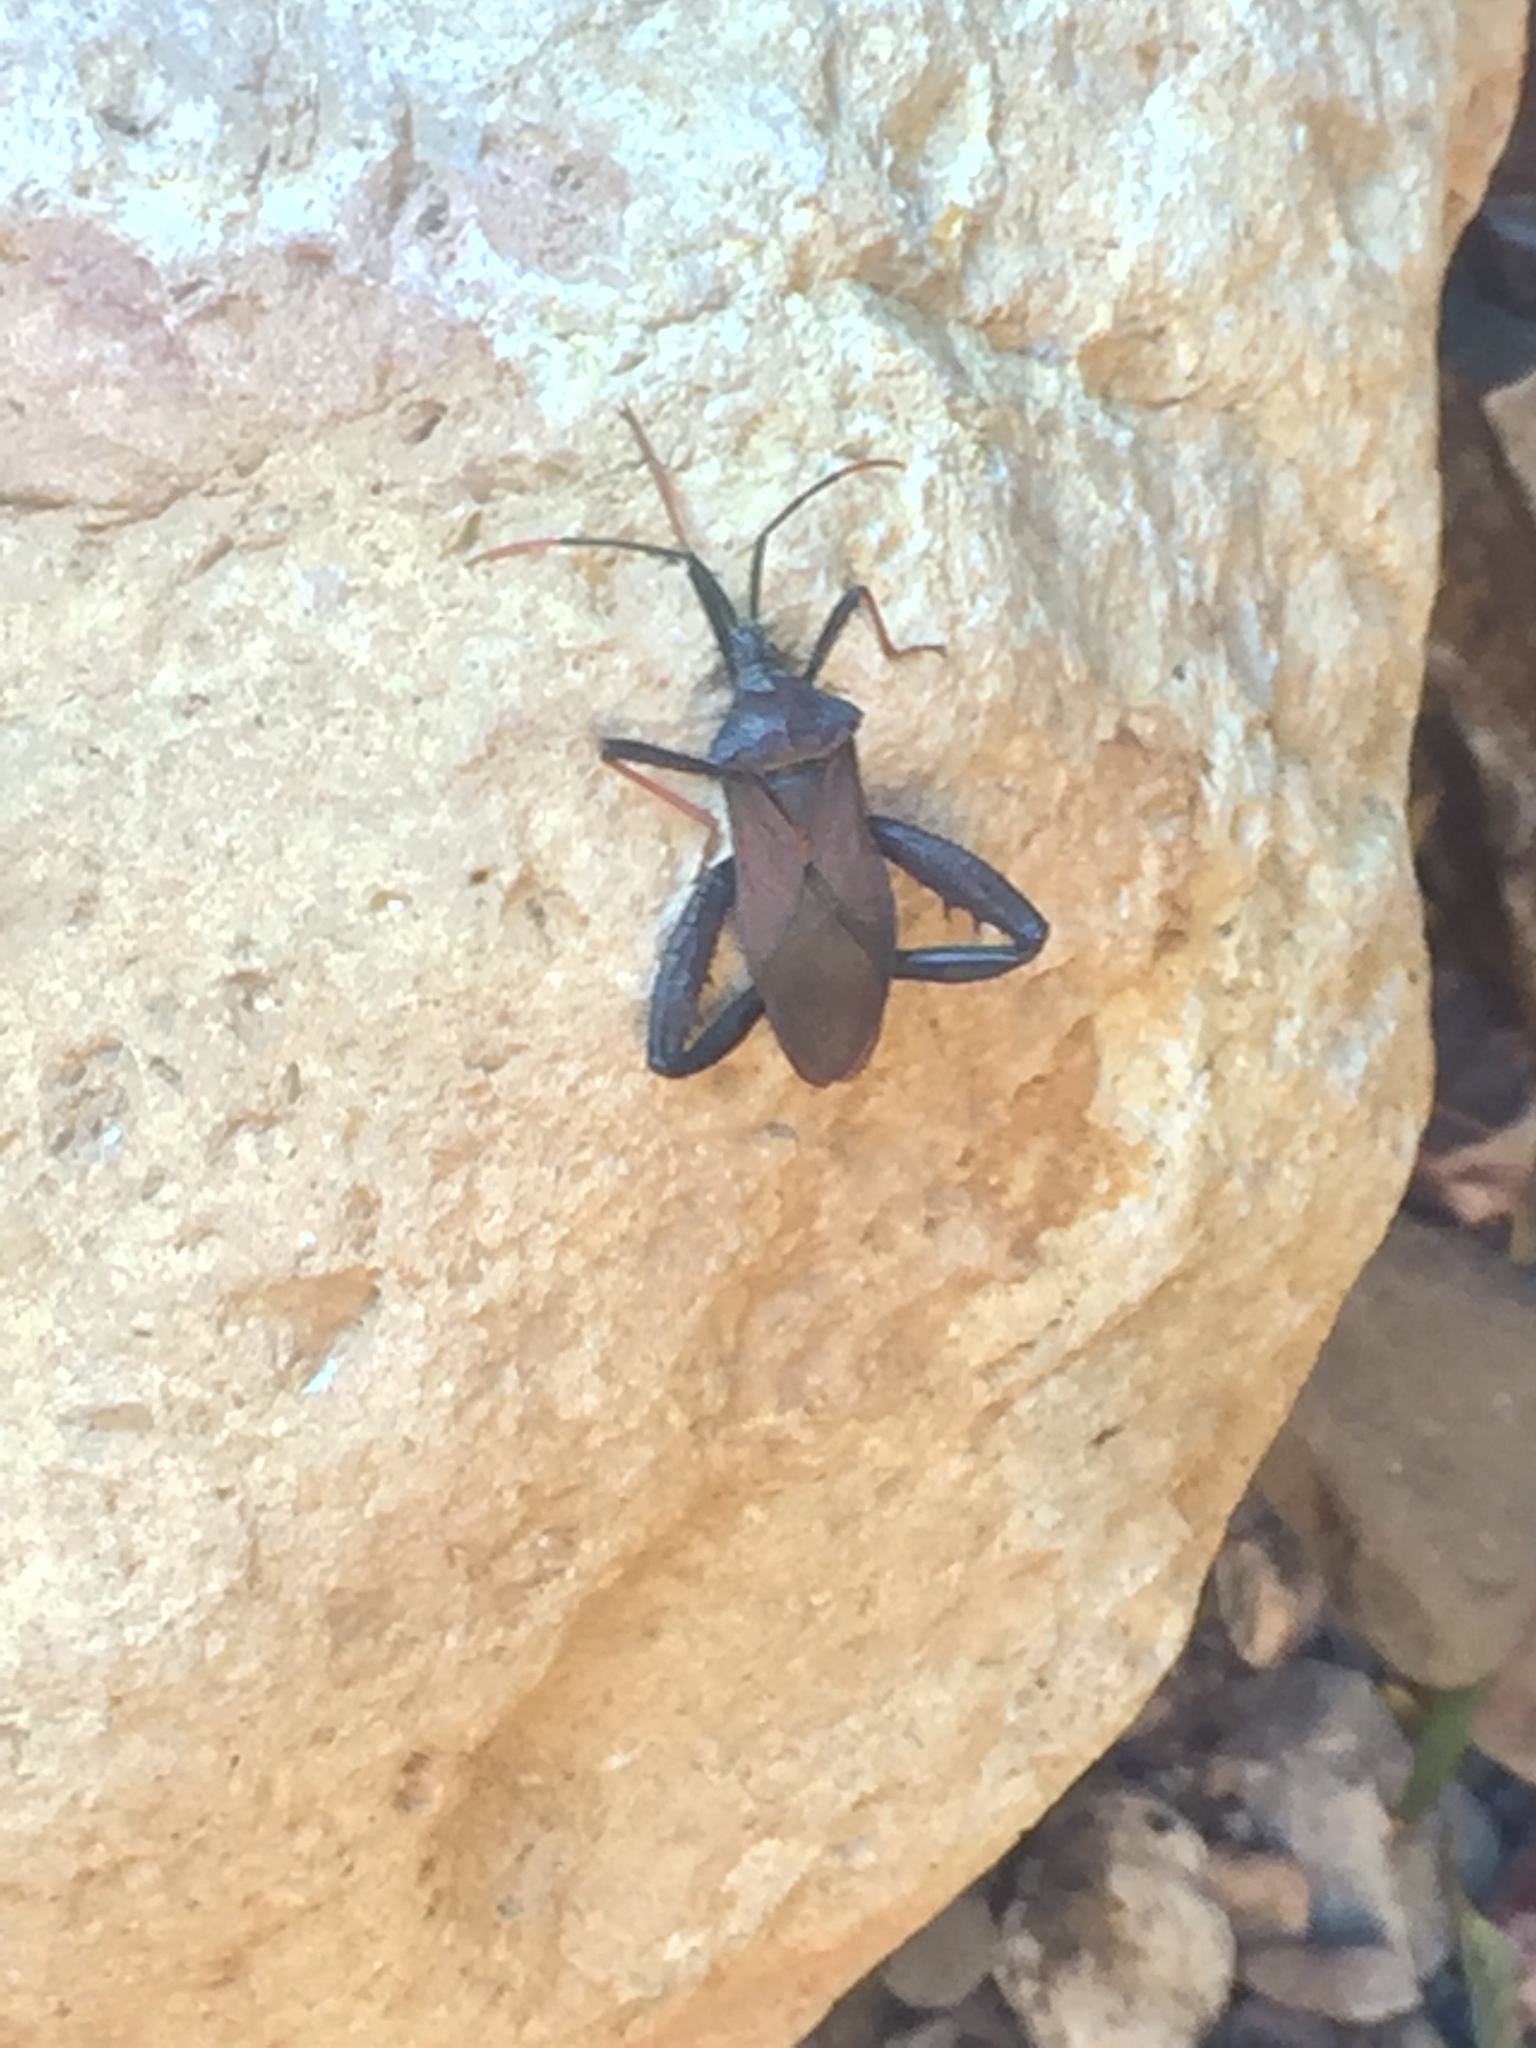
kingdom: Animalia
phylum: Arthropoda
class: Insecta
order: Hemiptera
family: Coreidae
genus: Acanthocephala
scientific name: Acanthocephala thomasi
